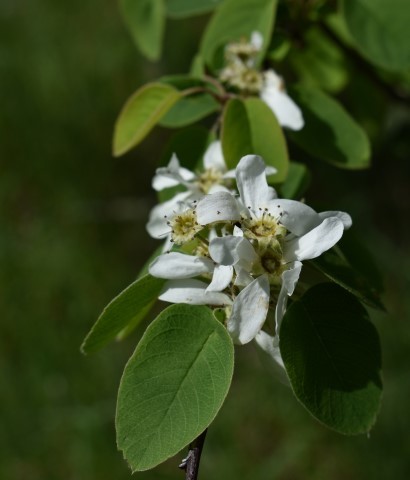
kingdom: Plantae
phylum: Tracheophyta
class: Magnoliopsida
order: Rosales
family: Rosaceae
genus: Amelanchier
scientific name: Amelanchier alnifolia
